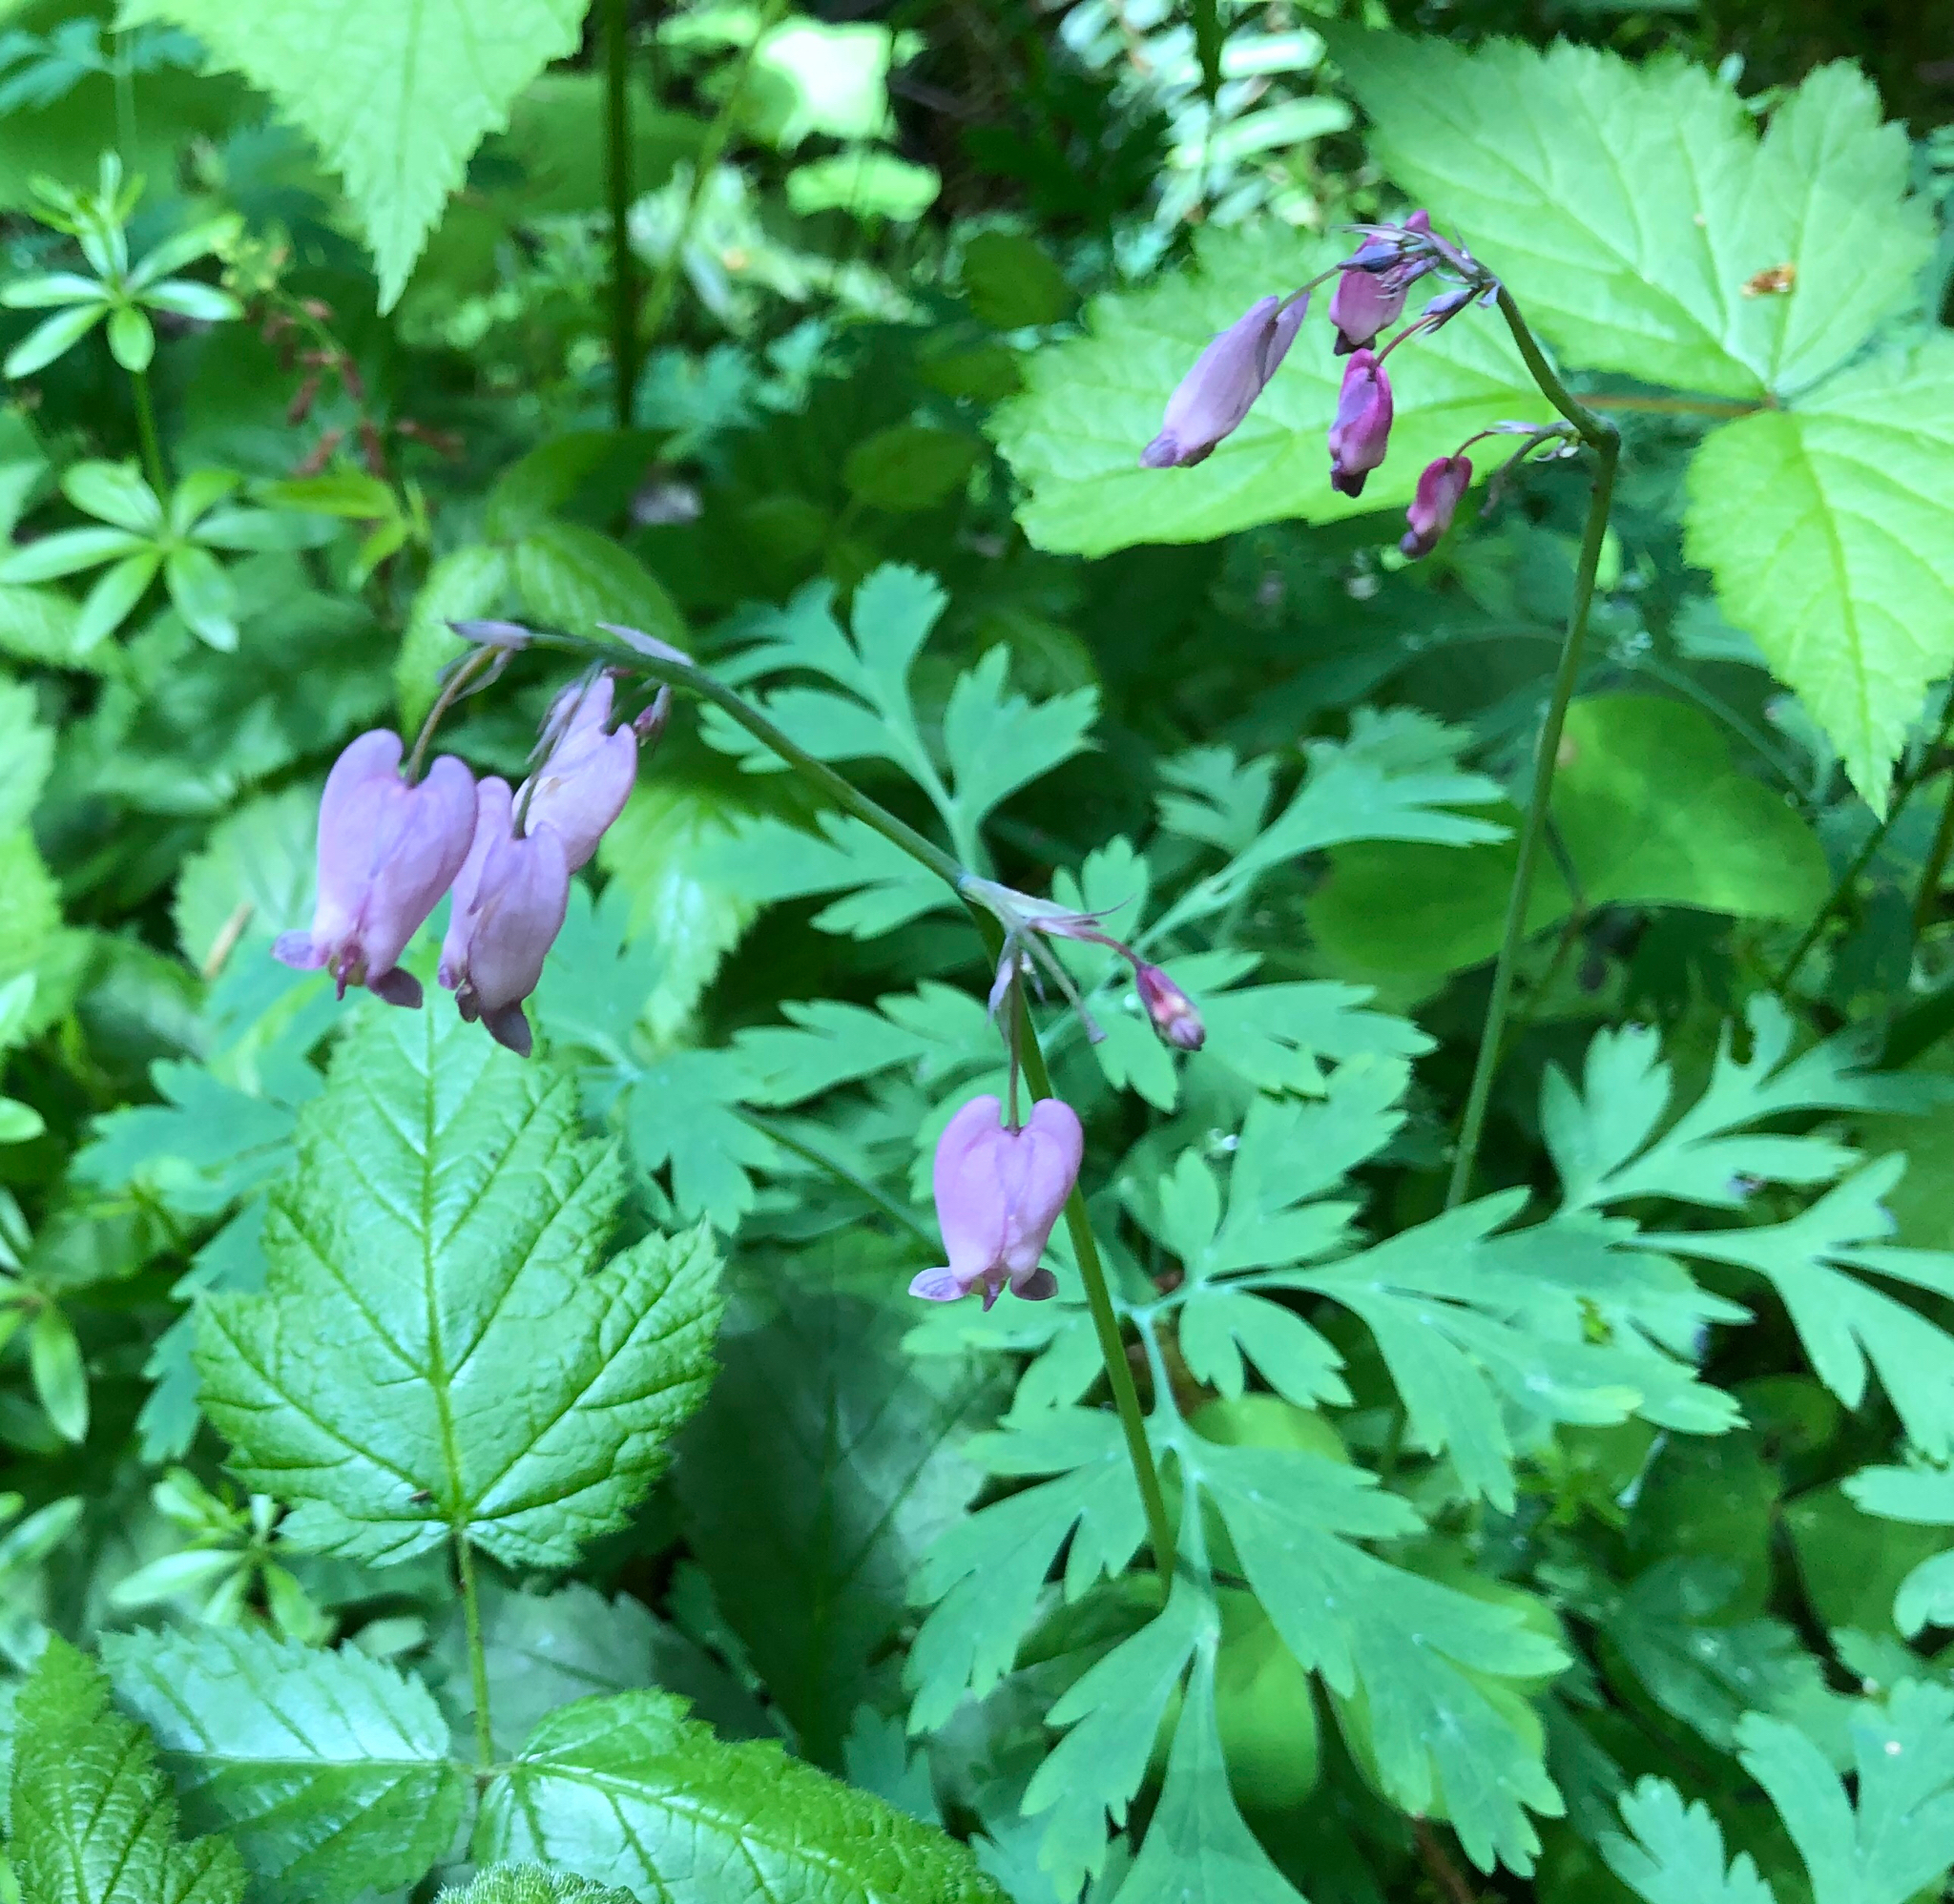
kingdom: Plantae
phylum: Tracheophyta
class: Magnoliopsida
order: Ranunculales
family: Papaveraceae
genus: Dicentra
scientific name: Dicentra formosa
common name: Bleeding-heart
